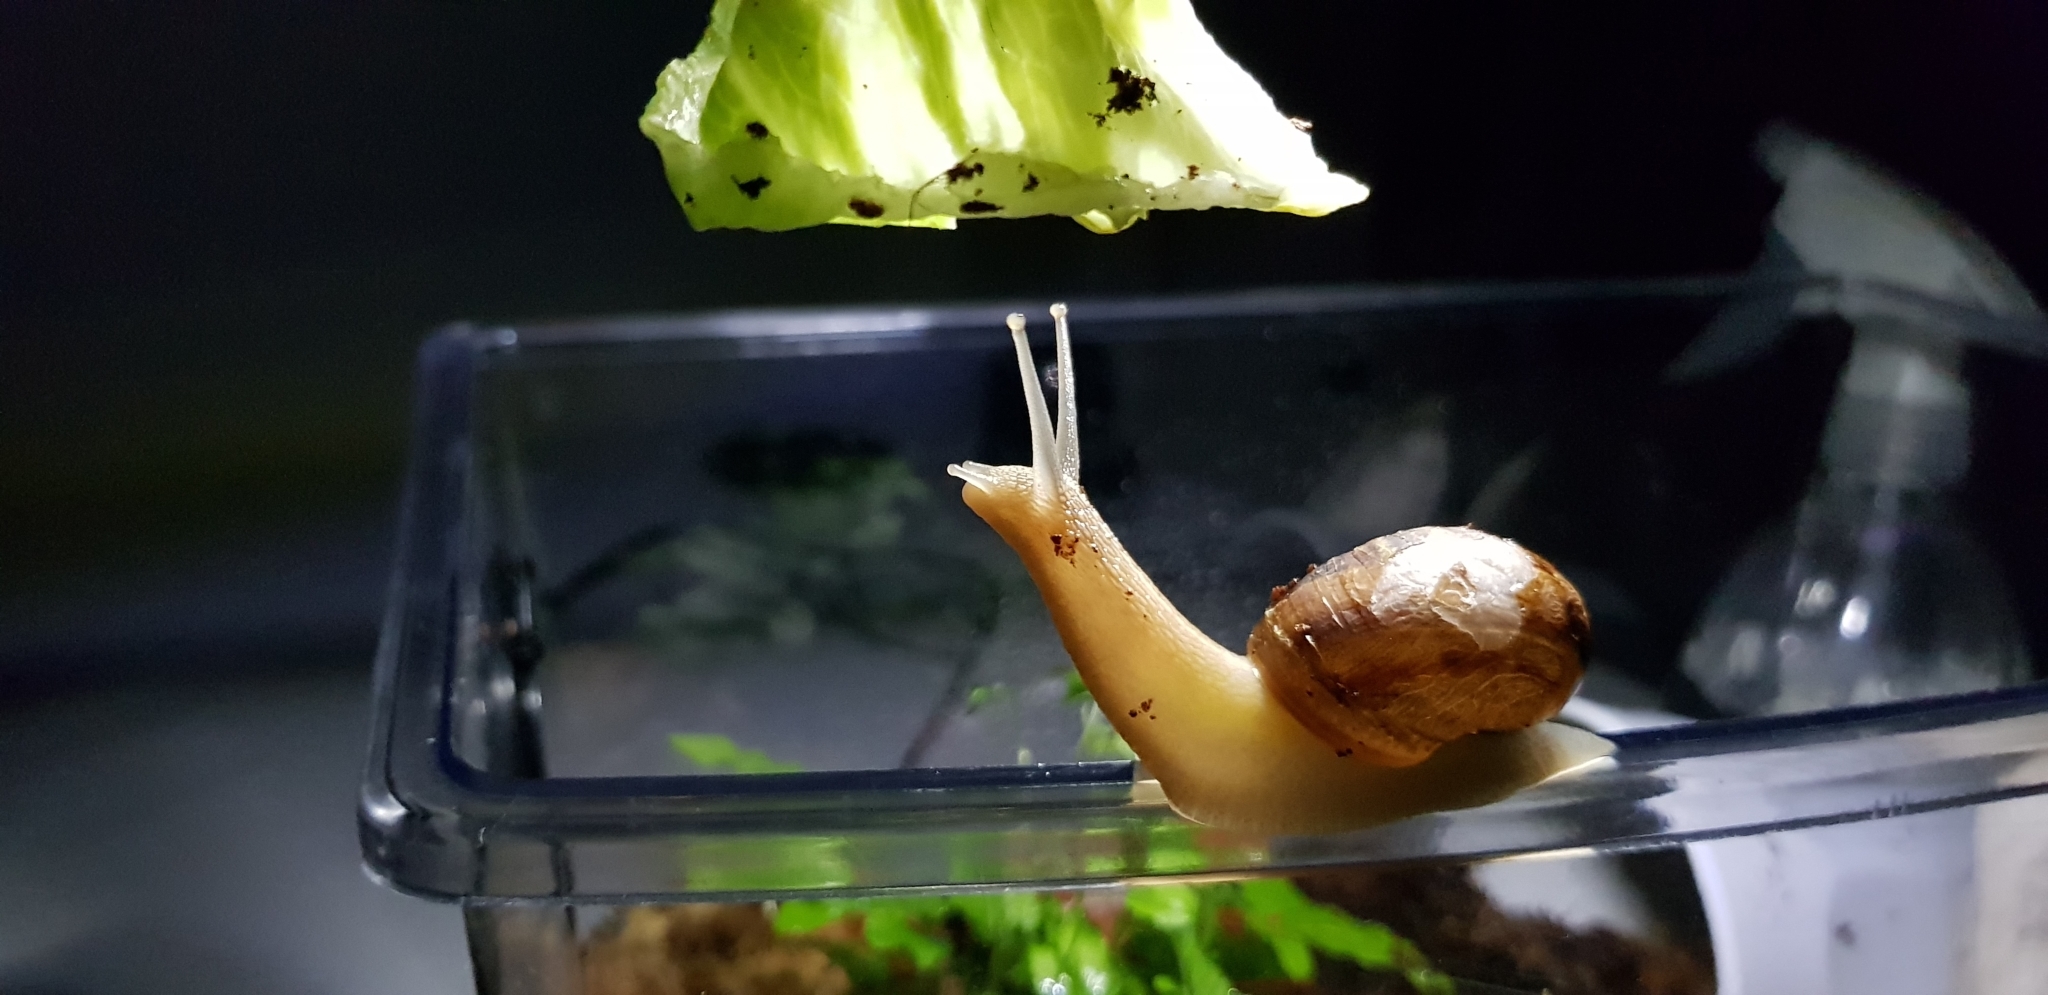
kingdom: Animalia
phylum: Mollusca
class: Gastropoda
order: Stylommatophora
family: Helicidae
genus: Cornu
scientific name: Cornu aspersum
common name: Brown garden snail
